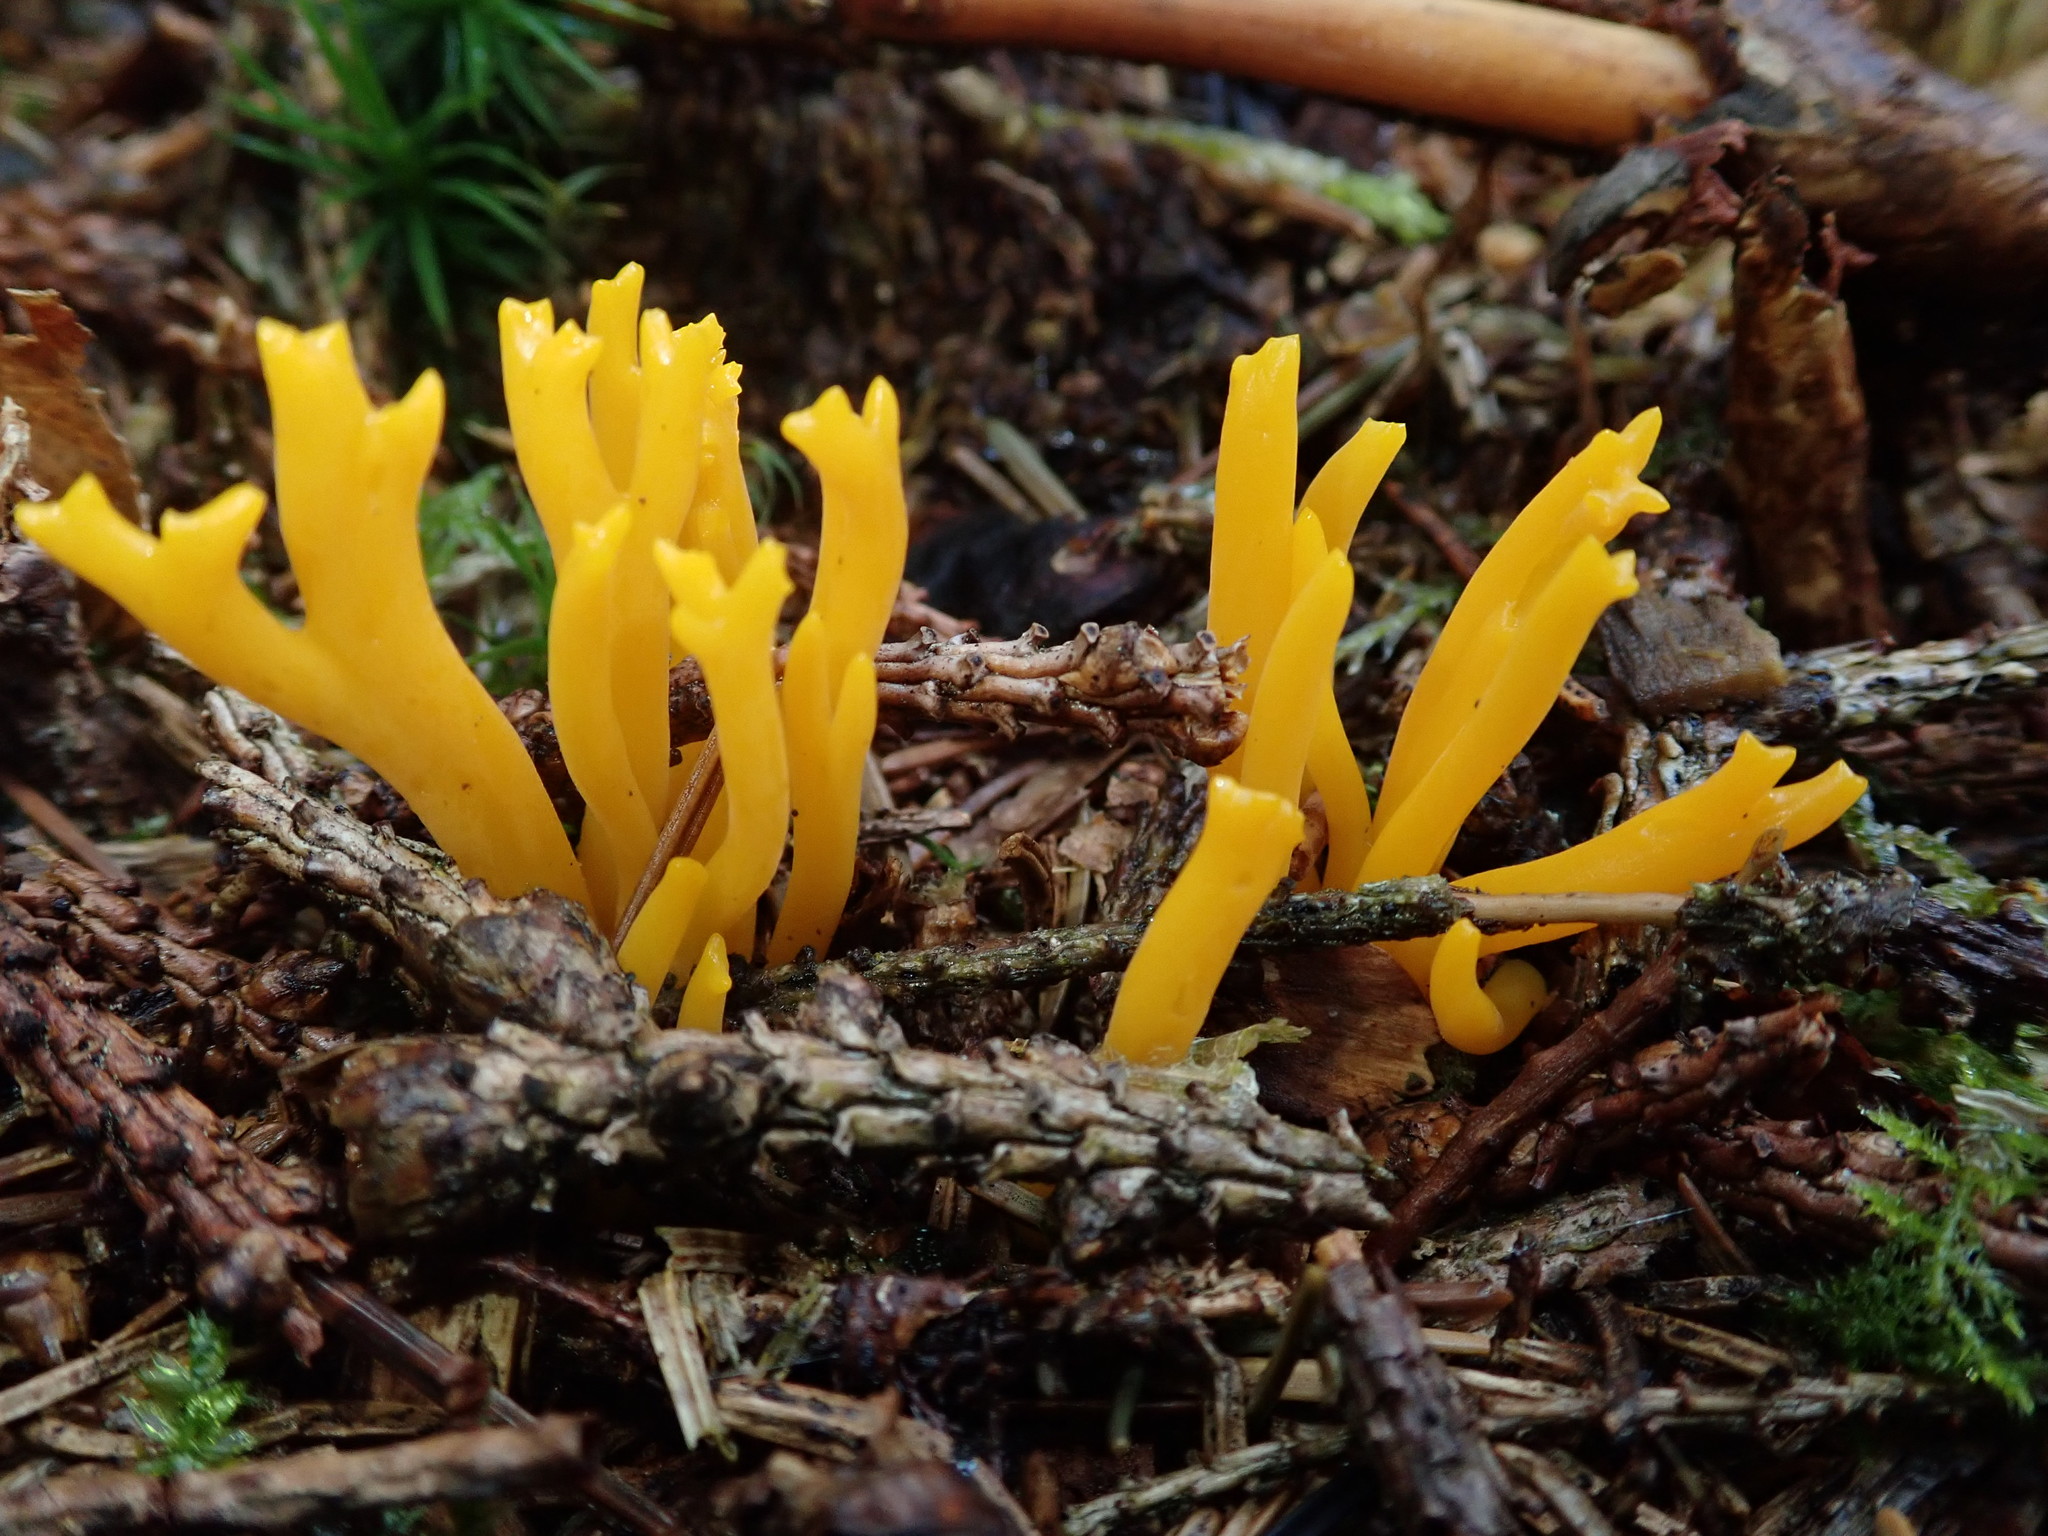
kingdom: Fungi
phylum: Basidiomycota
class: Dacrymycetes
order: Dacrymycetales
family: Dacrymycetaceae
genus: Calocera
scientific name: Calocera viscosa
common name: Yellow stagshorn
